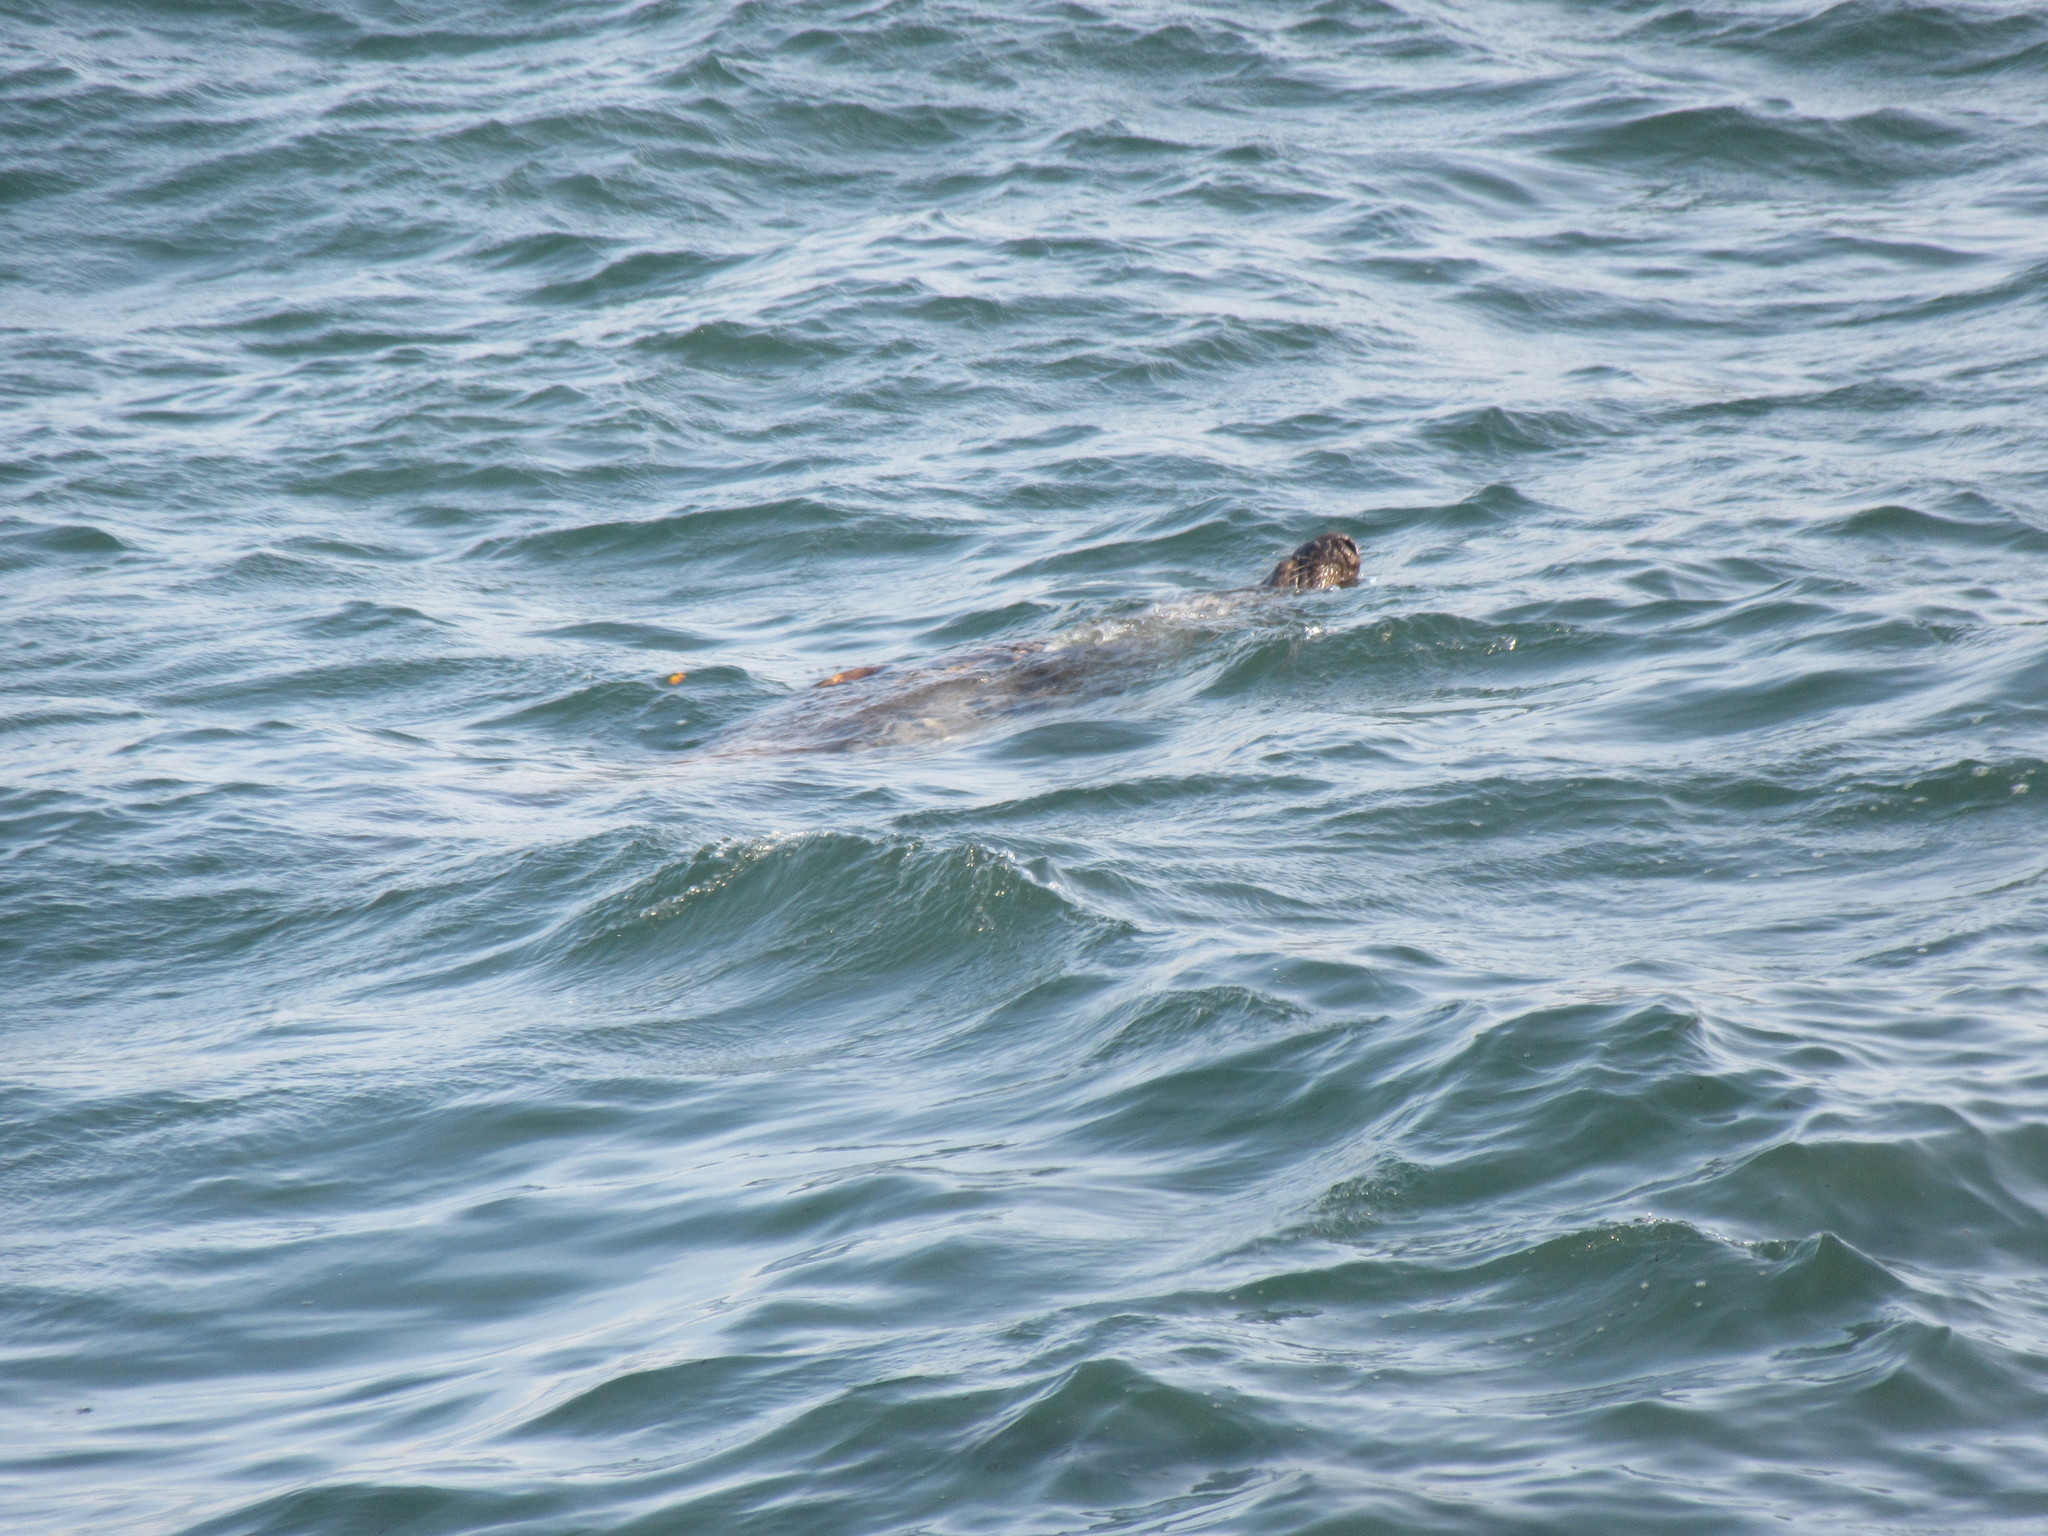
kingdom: Animalia
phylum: Chordata
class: Mammalia
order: Carnivora
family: Phocidae
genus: Halichoerus
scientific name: Halichoerus grypus
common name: Grey seal
